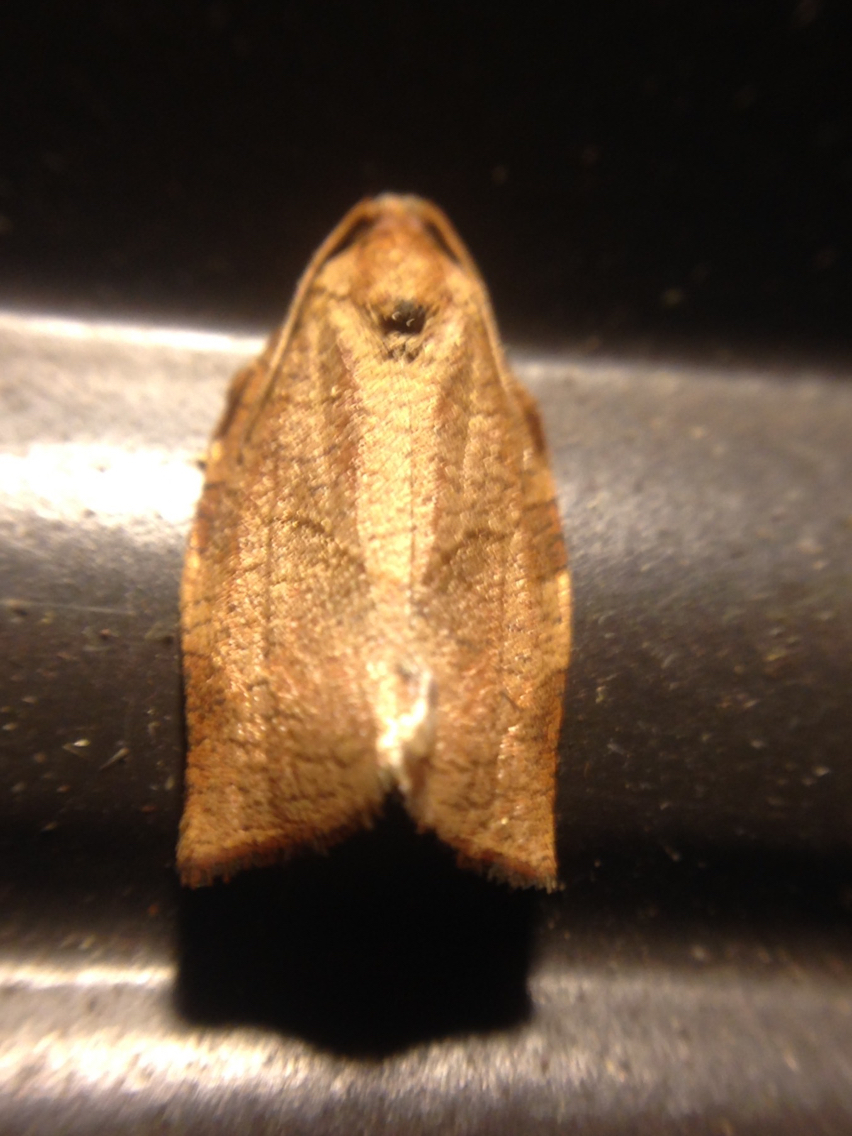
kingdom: Animalia
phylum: Arthropoda
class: Insecta
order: Lepidoptera
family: Tortricidae
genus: Choristoneura
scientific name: Choristoneura rosaceana
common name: Oblique-banded leafroller moth
